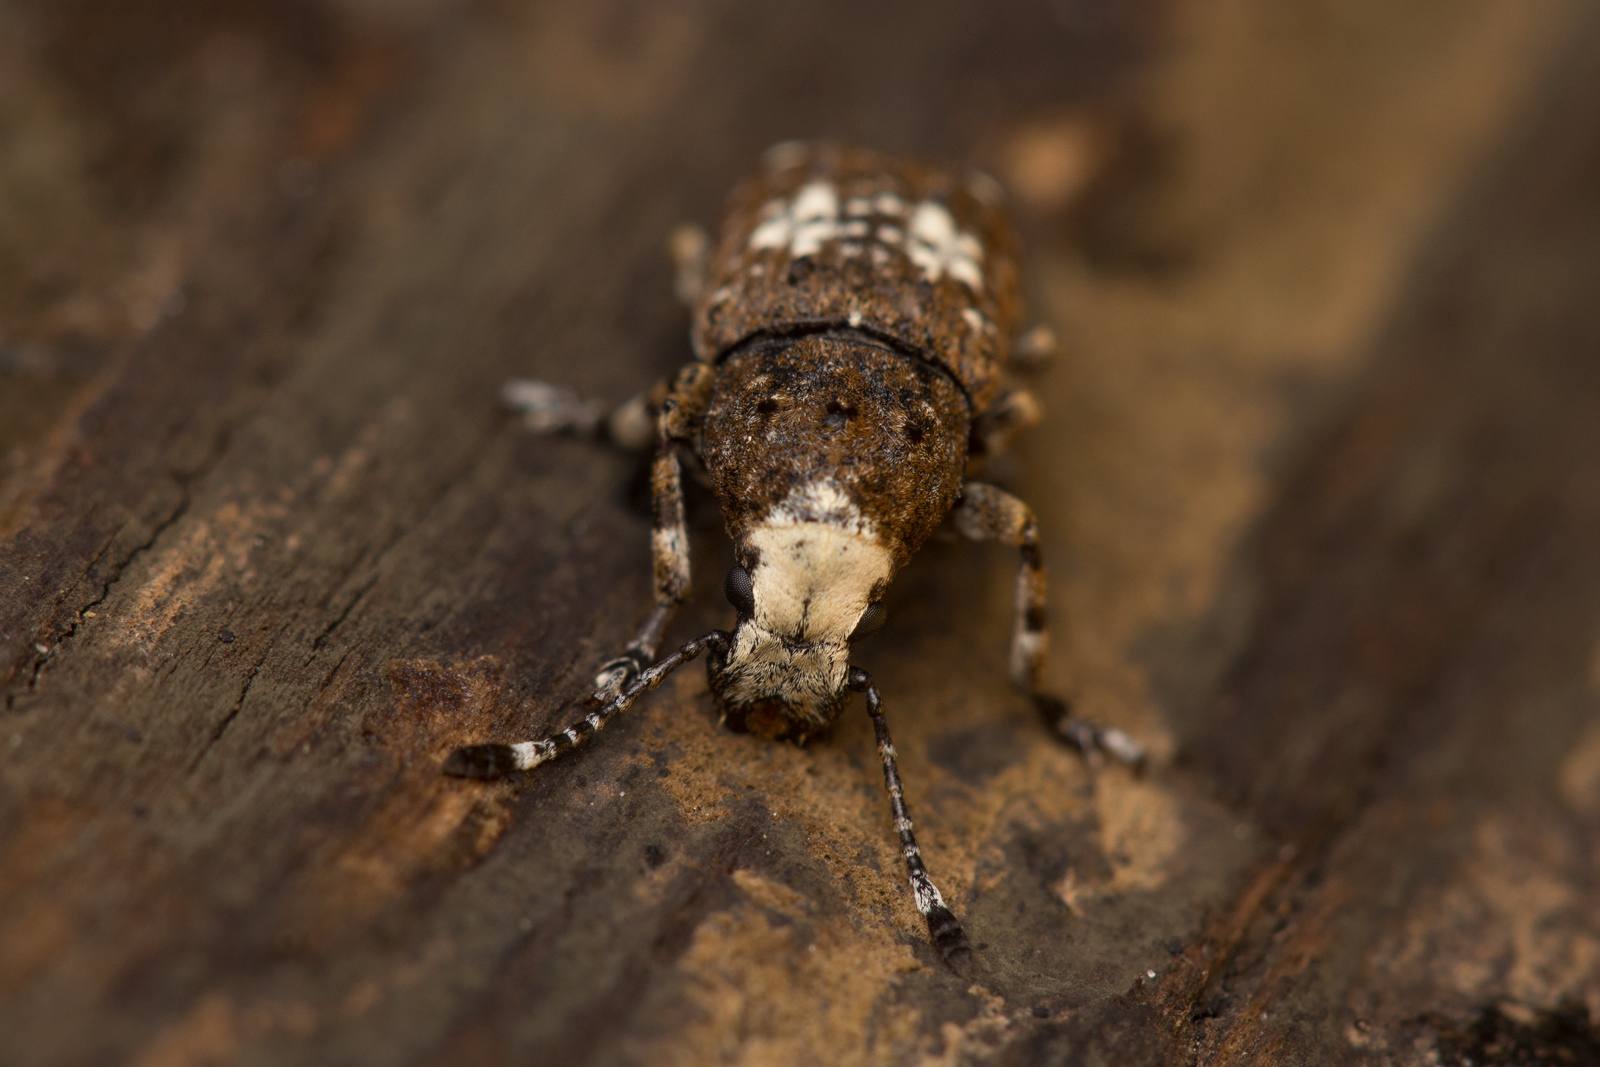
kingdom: Animalia
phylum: Arthropoda
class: Insecta
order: Coleoptera
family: Anthribidae
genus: Platystomos
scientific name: Platystomos albinus
